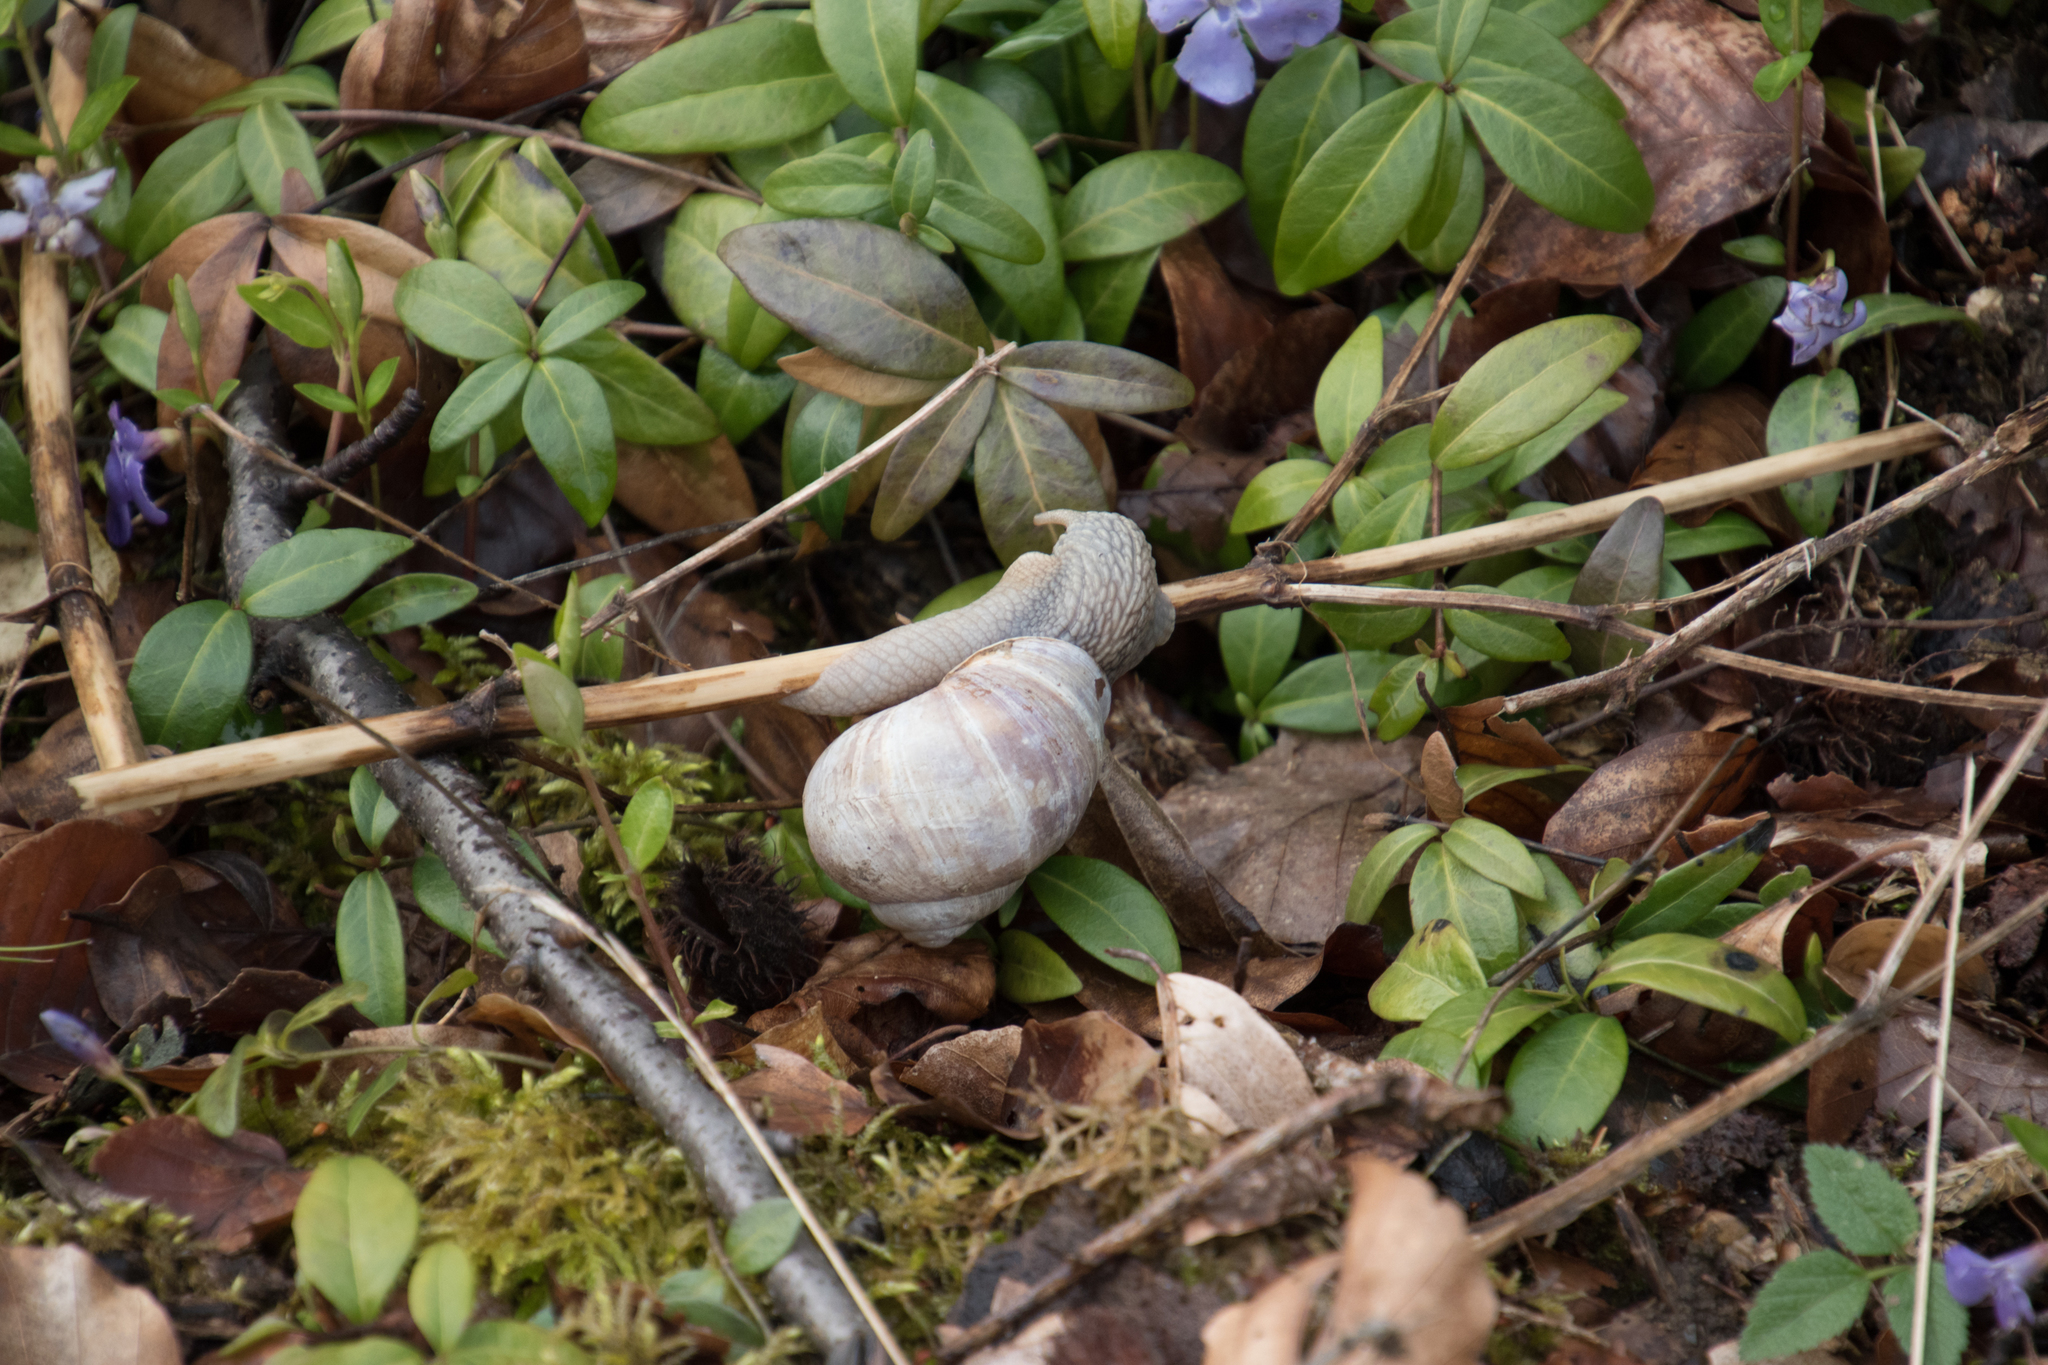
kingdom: Animalia
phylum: Mollusca
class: Gastropoda
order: Stylommatophora
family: Helicidae
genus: Helix
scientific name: Helix pomatia
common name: Roman snail
